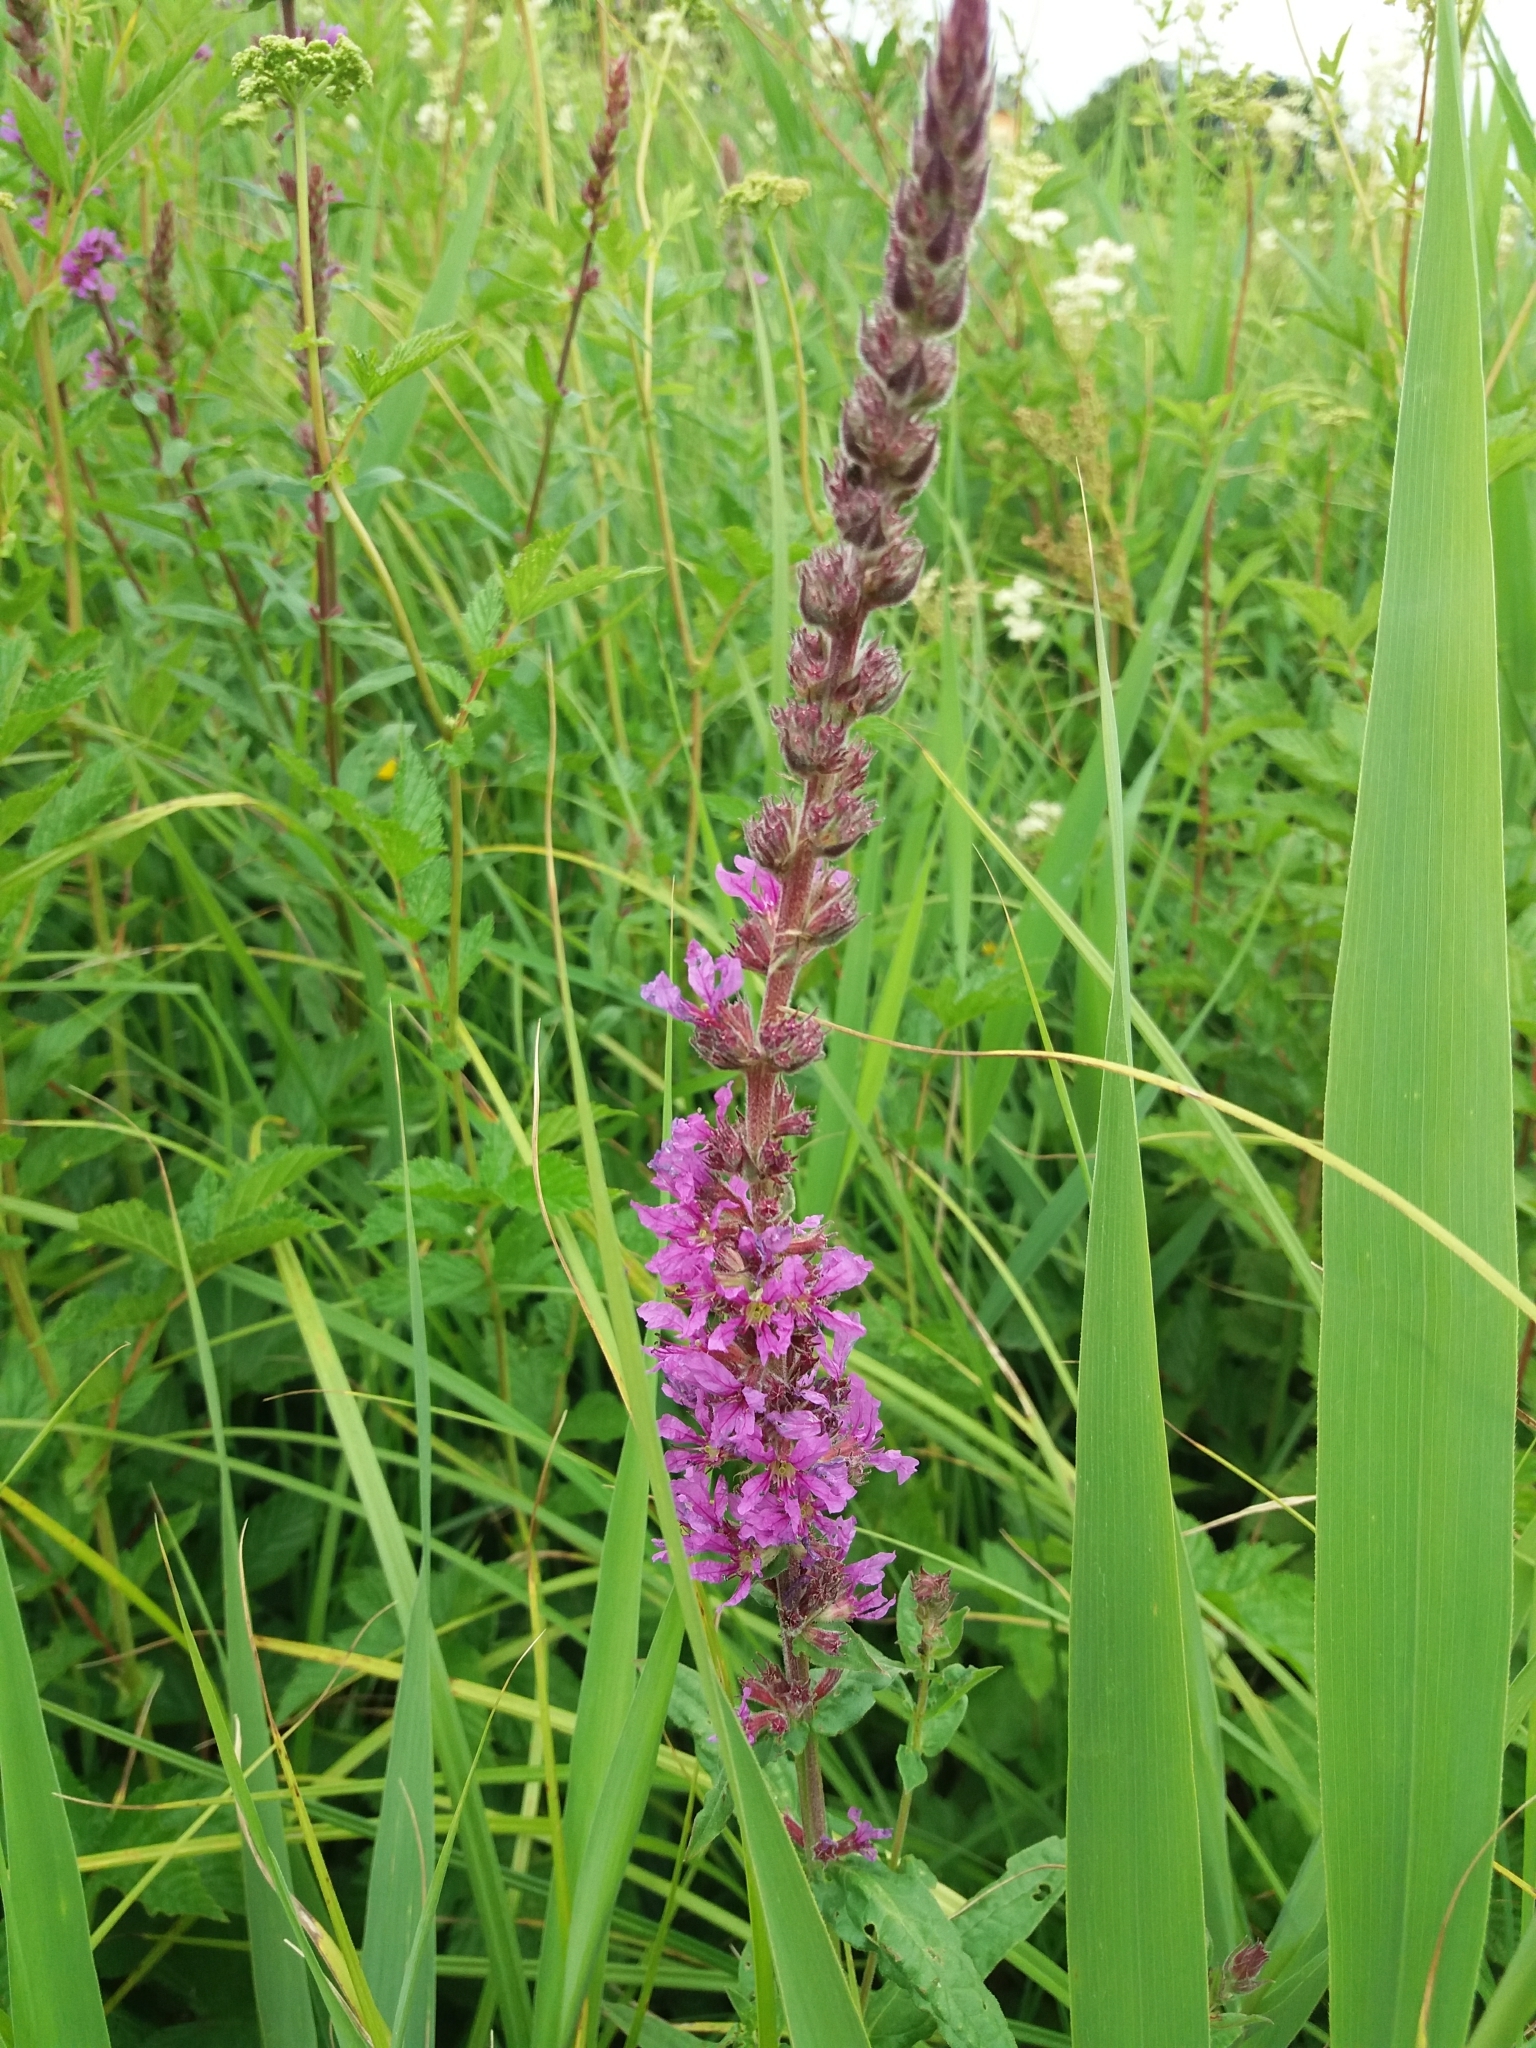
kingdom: Plantae
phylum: Tracheophyta
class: Magnoliopsida
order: Myrtales
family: Lythraceae
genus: Lythrum
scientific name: Lythrum salicaria
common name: Purple loosestrife
